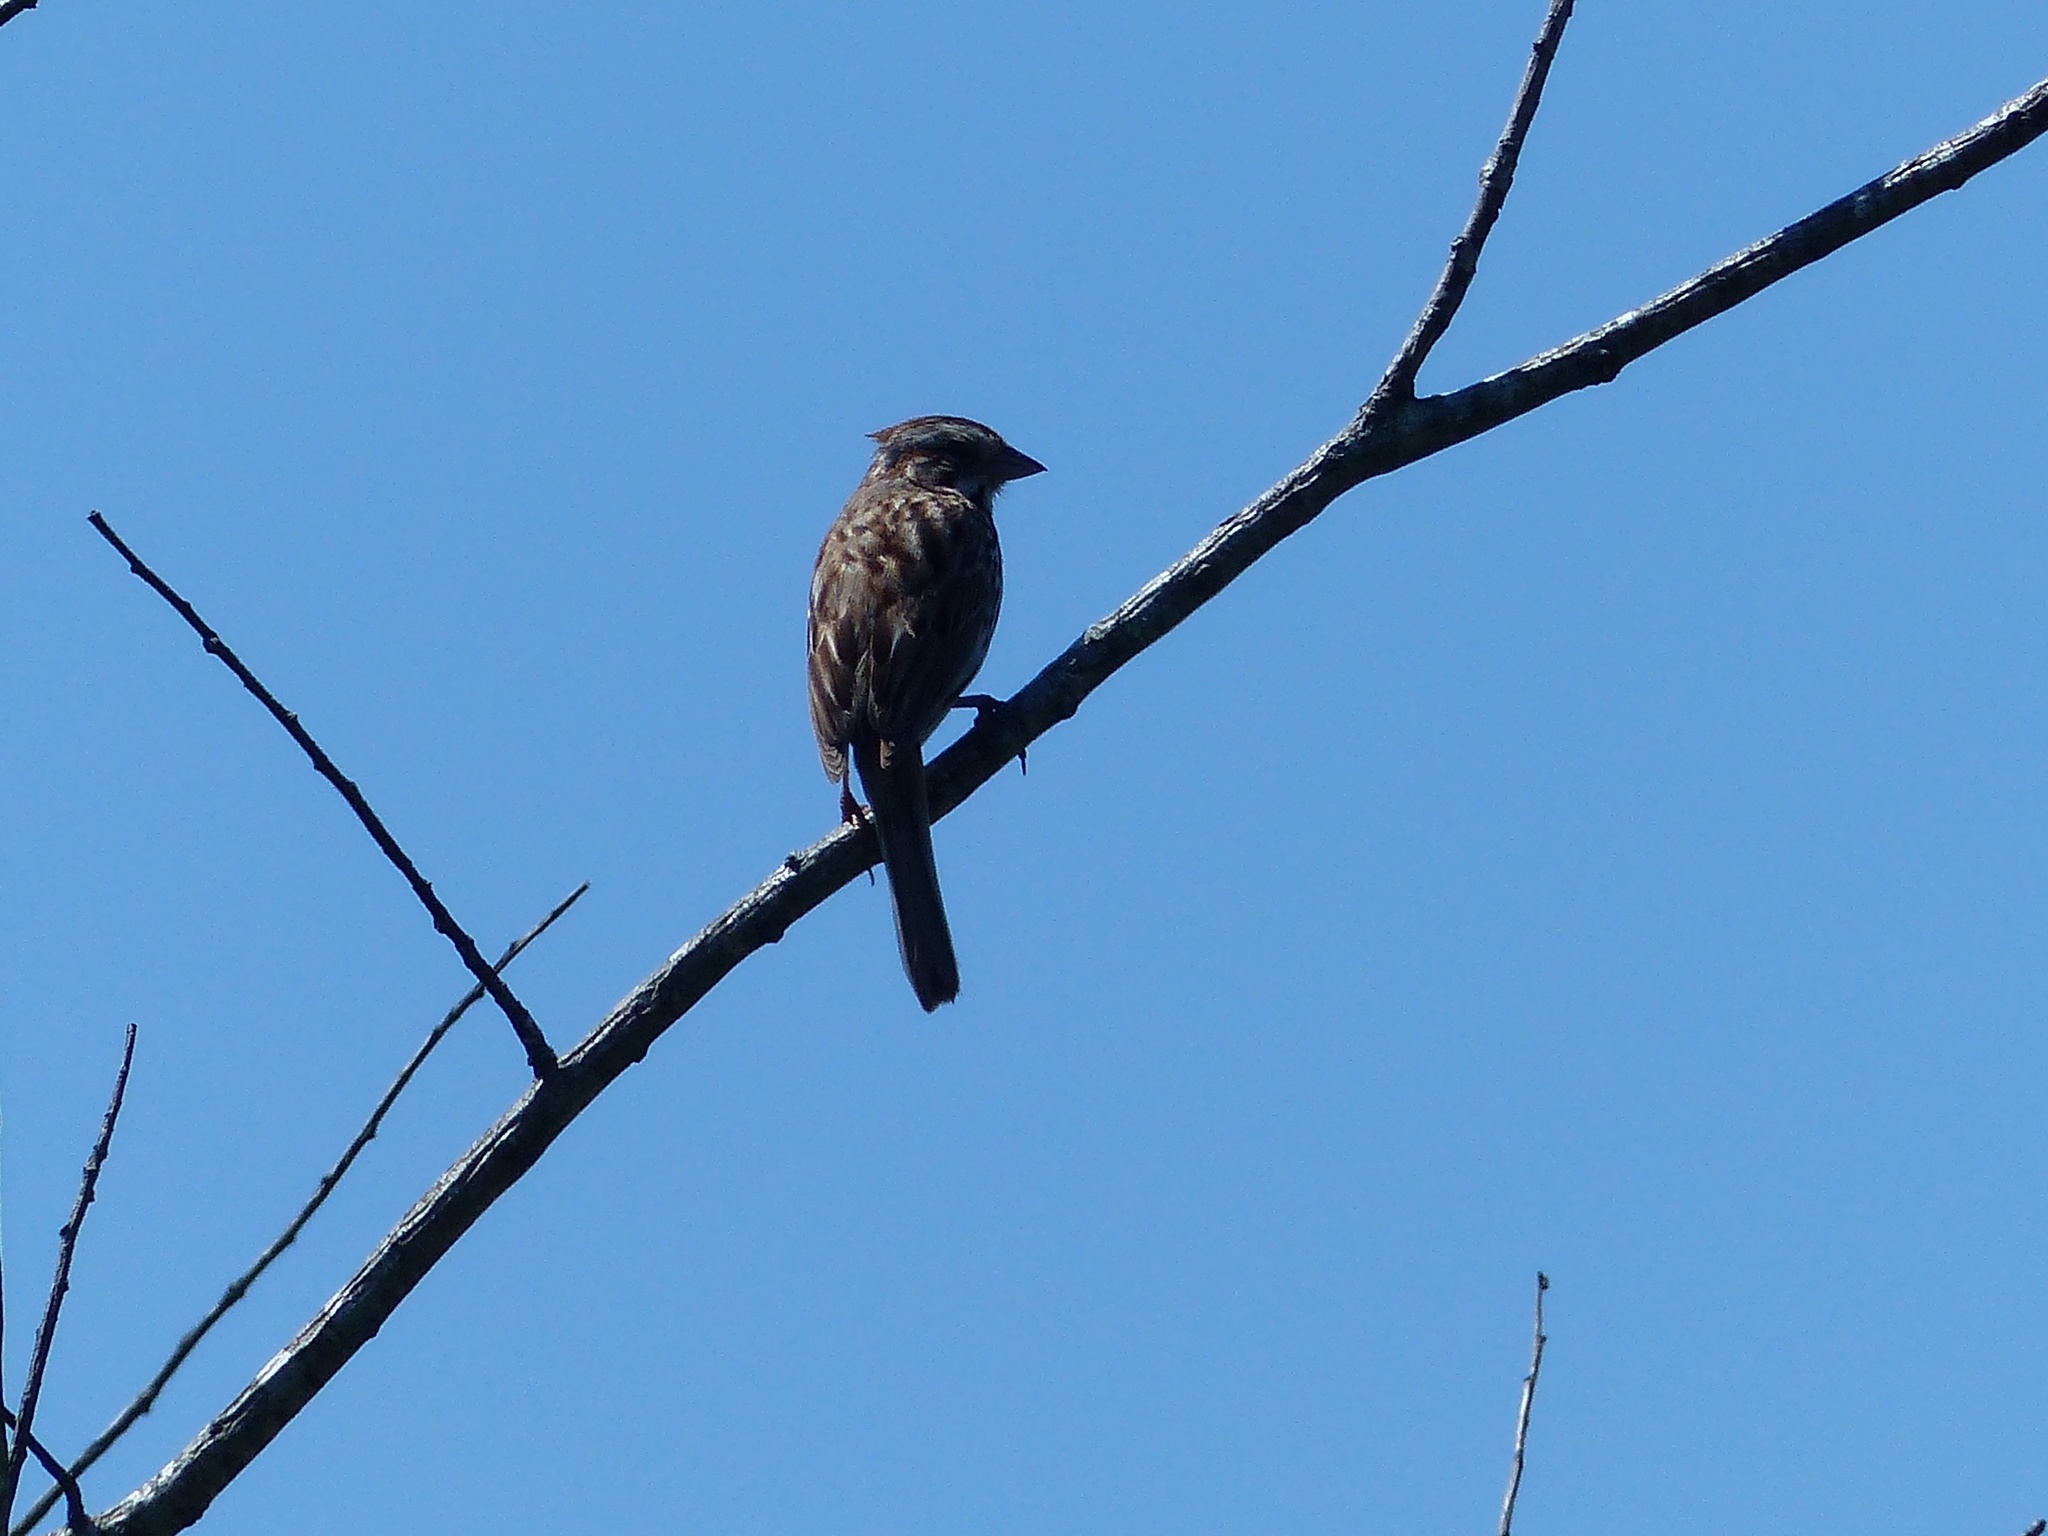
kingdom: Animalia
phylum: Chordata
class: Aves
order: Passeriformes
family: Passerellidae
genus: Melospiza
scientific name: Melospiza melodia
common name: Song sparrow
